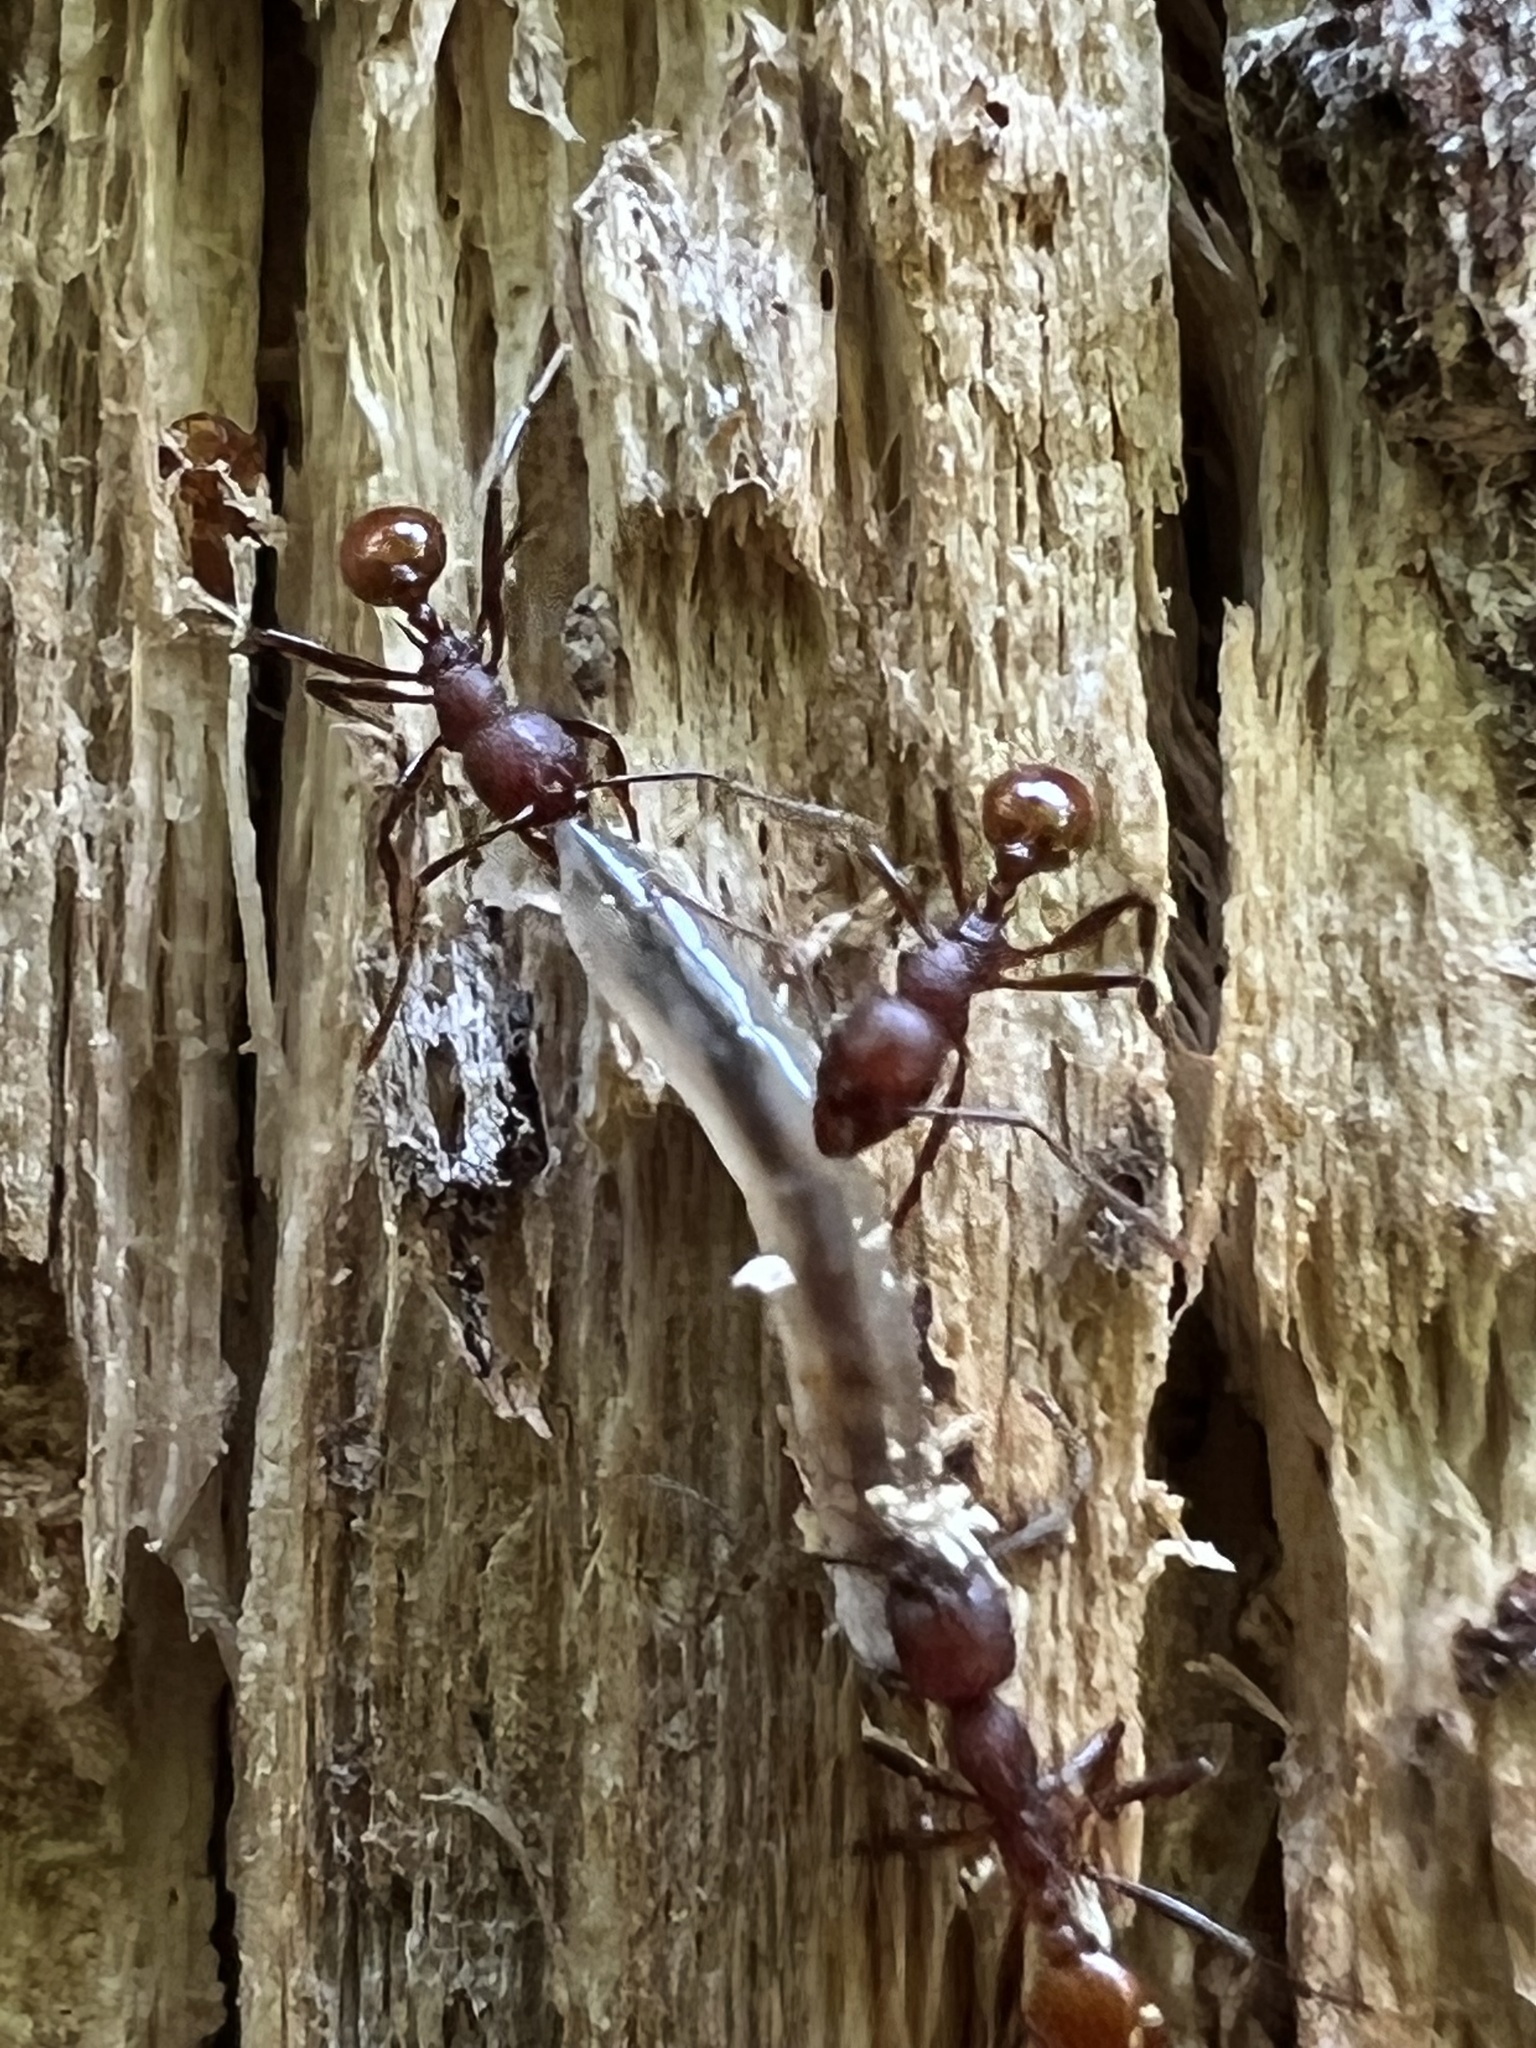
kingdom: Animalia
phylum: Arthropoda
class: Insecta
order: Hymenoptera
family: Formicidae
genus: Aphaenogaster
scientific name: Aphaenogaster tennesseensis
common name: Tennessee thread-waisted ant
